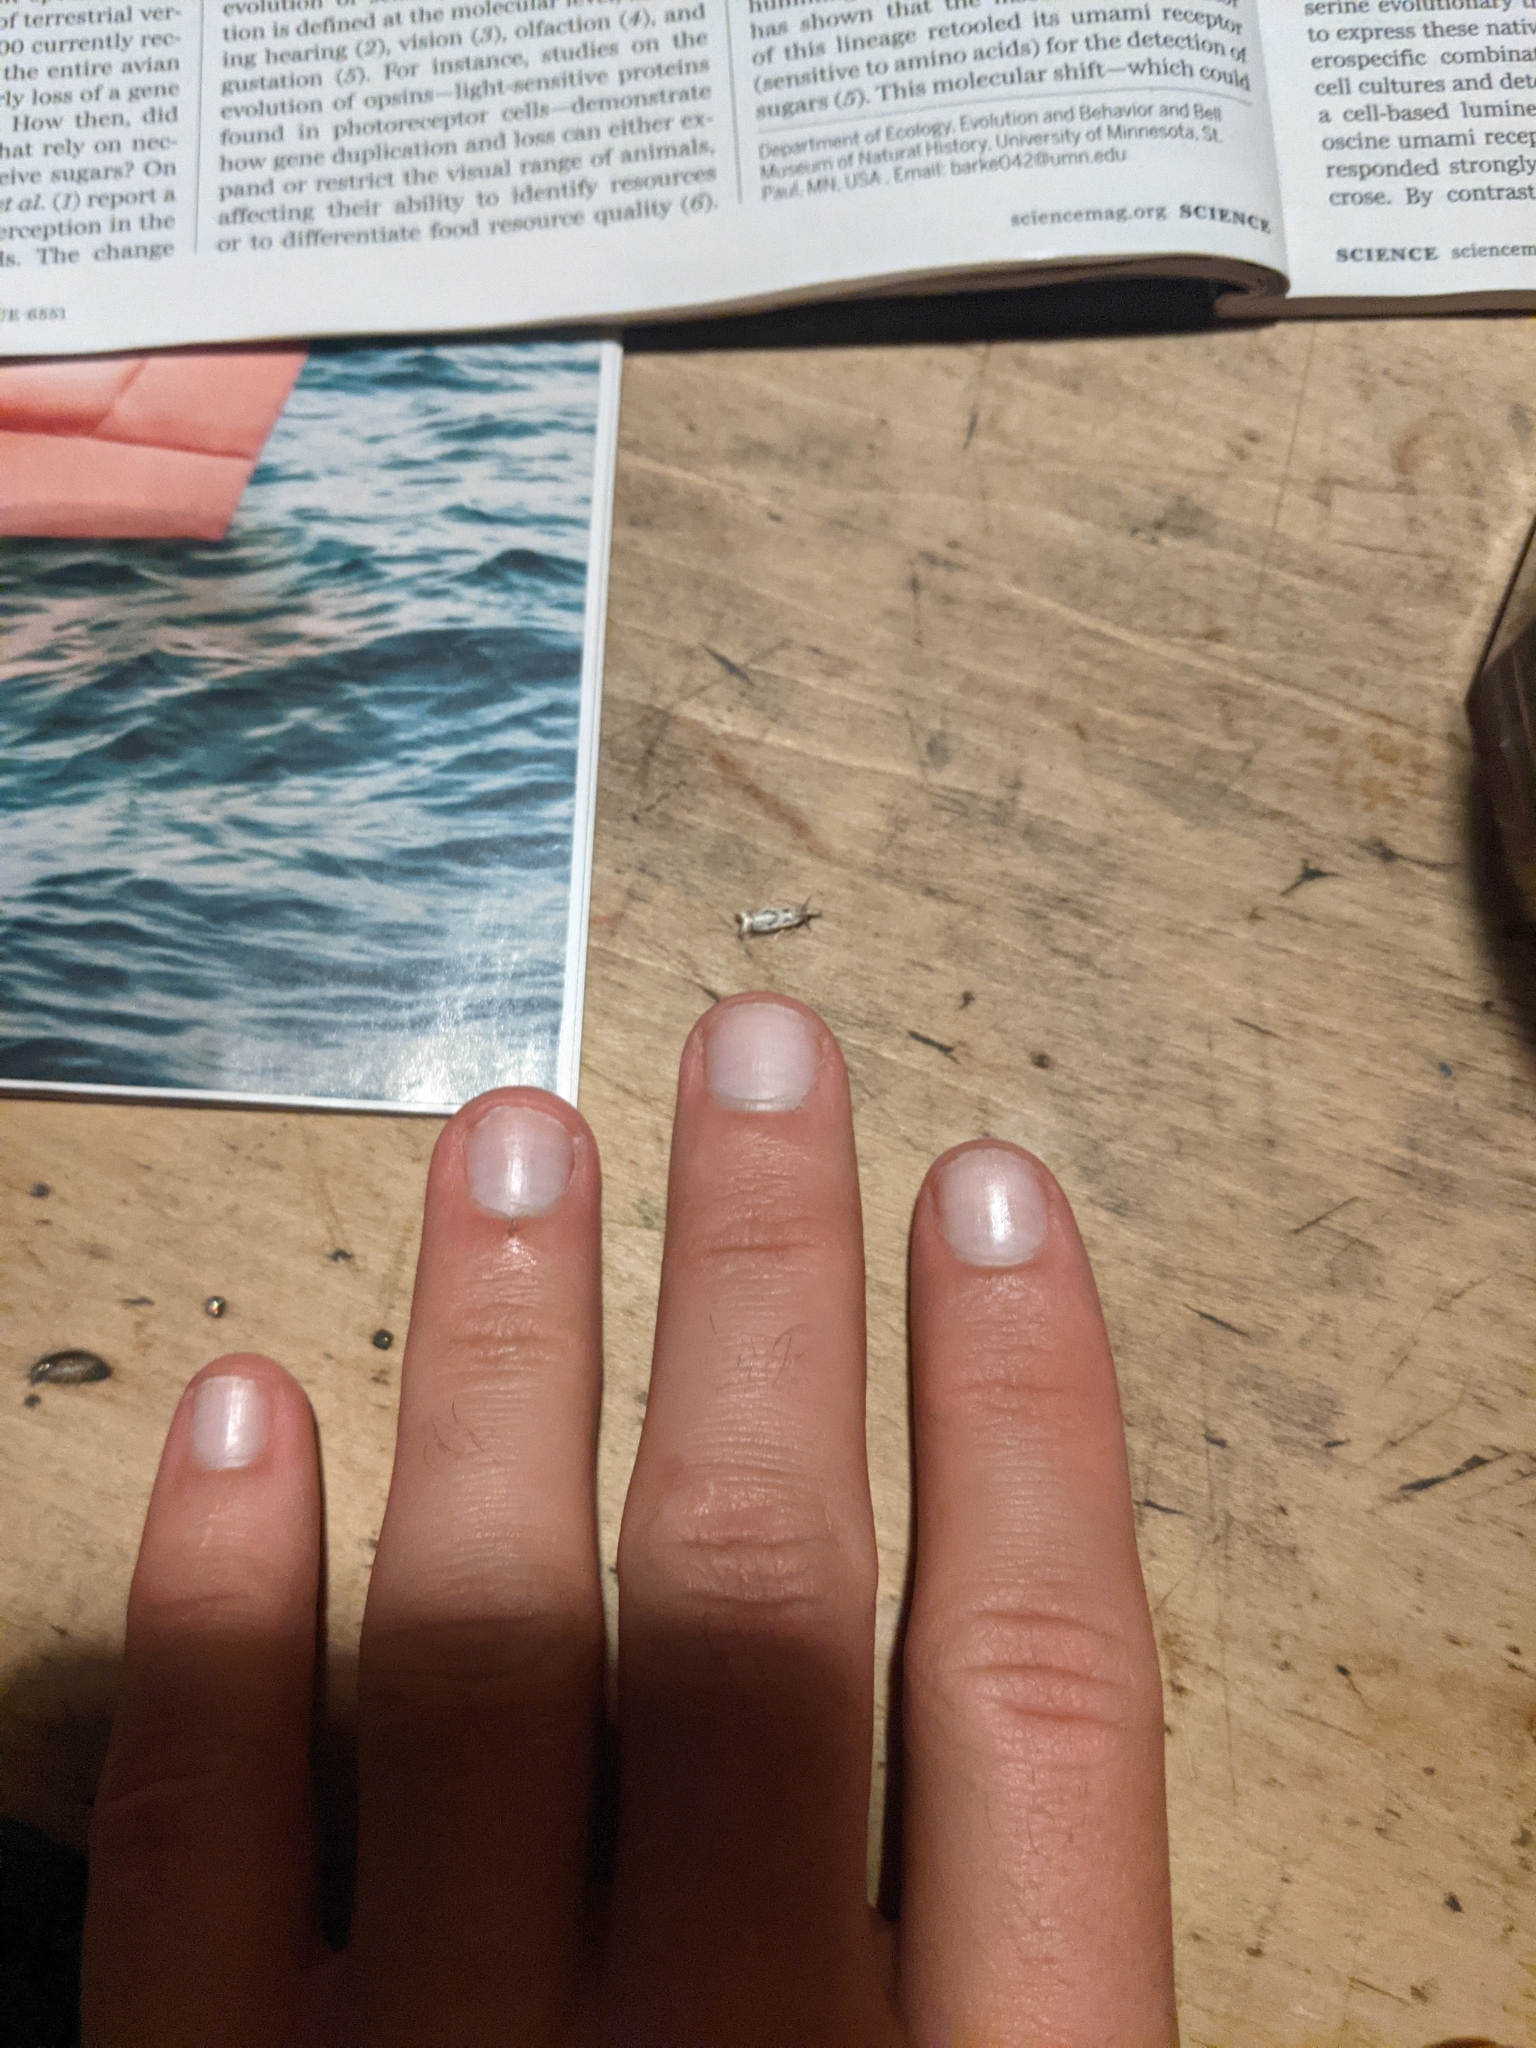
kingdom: Animalia
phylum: Arthropoda
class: Insecta
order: Lepidoptera
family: Crambidae
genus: Microcrambus
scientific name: Microcrambus elegans
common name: Elegant grass-veneer
